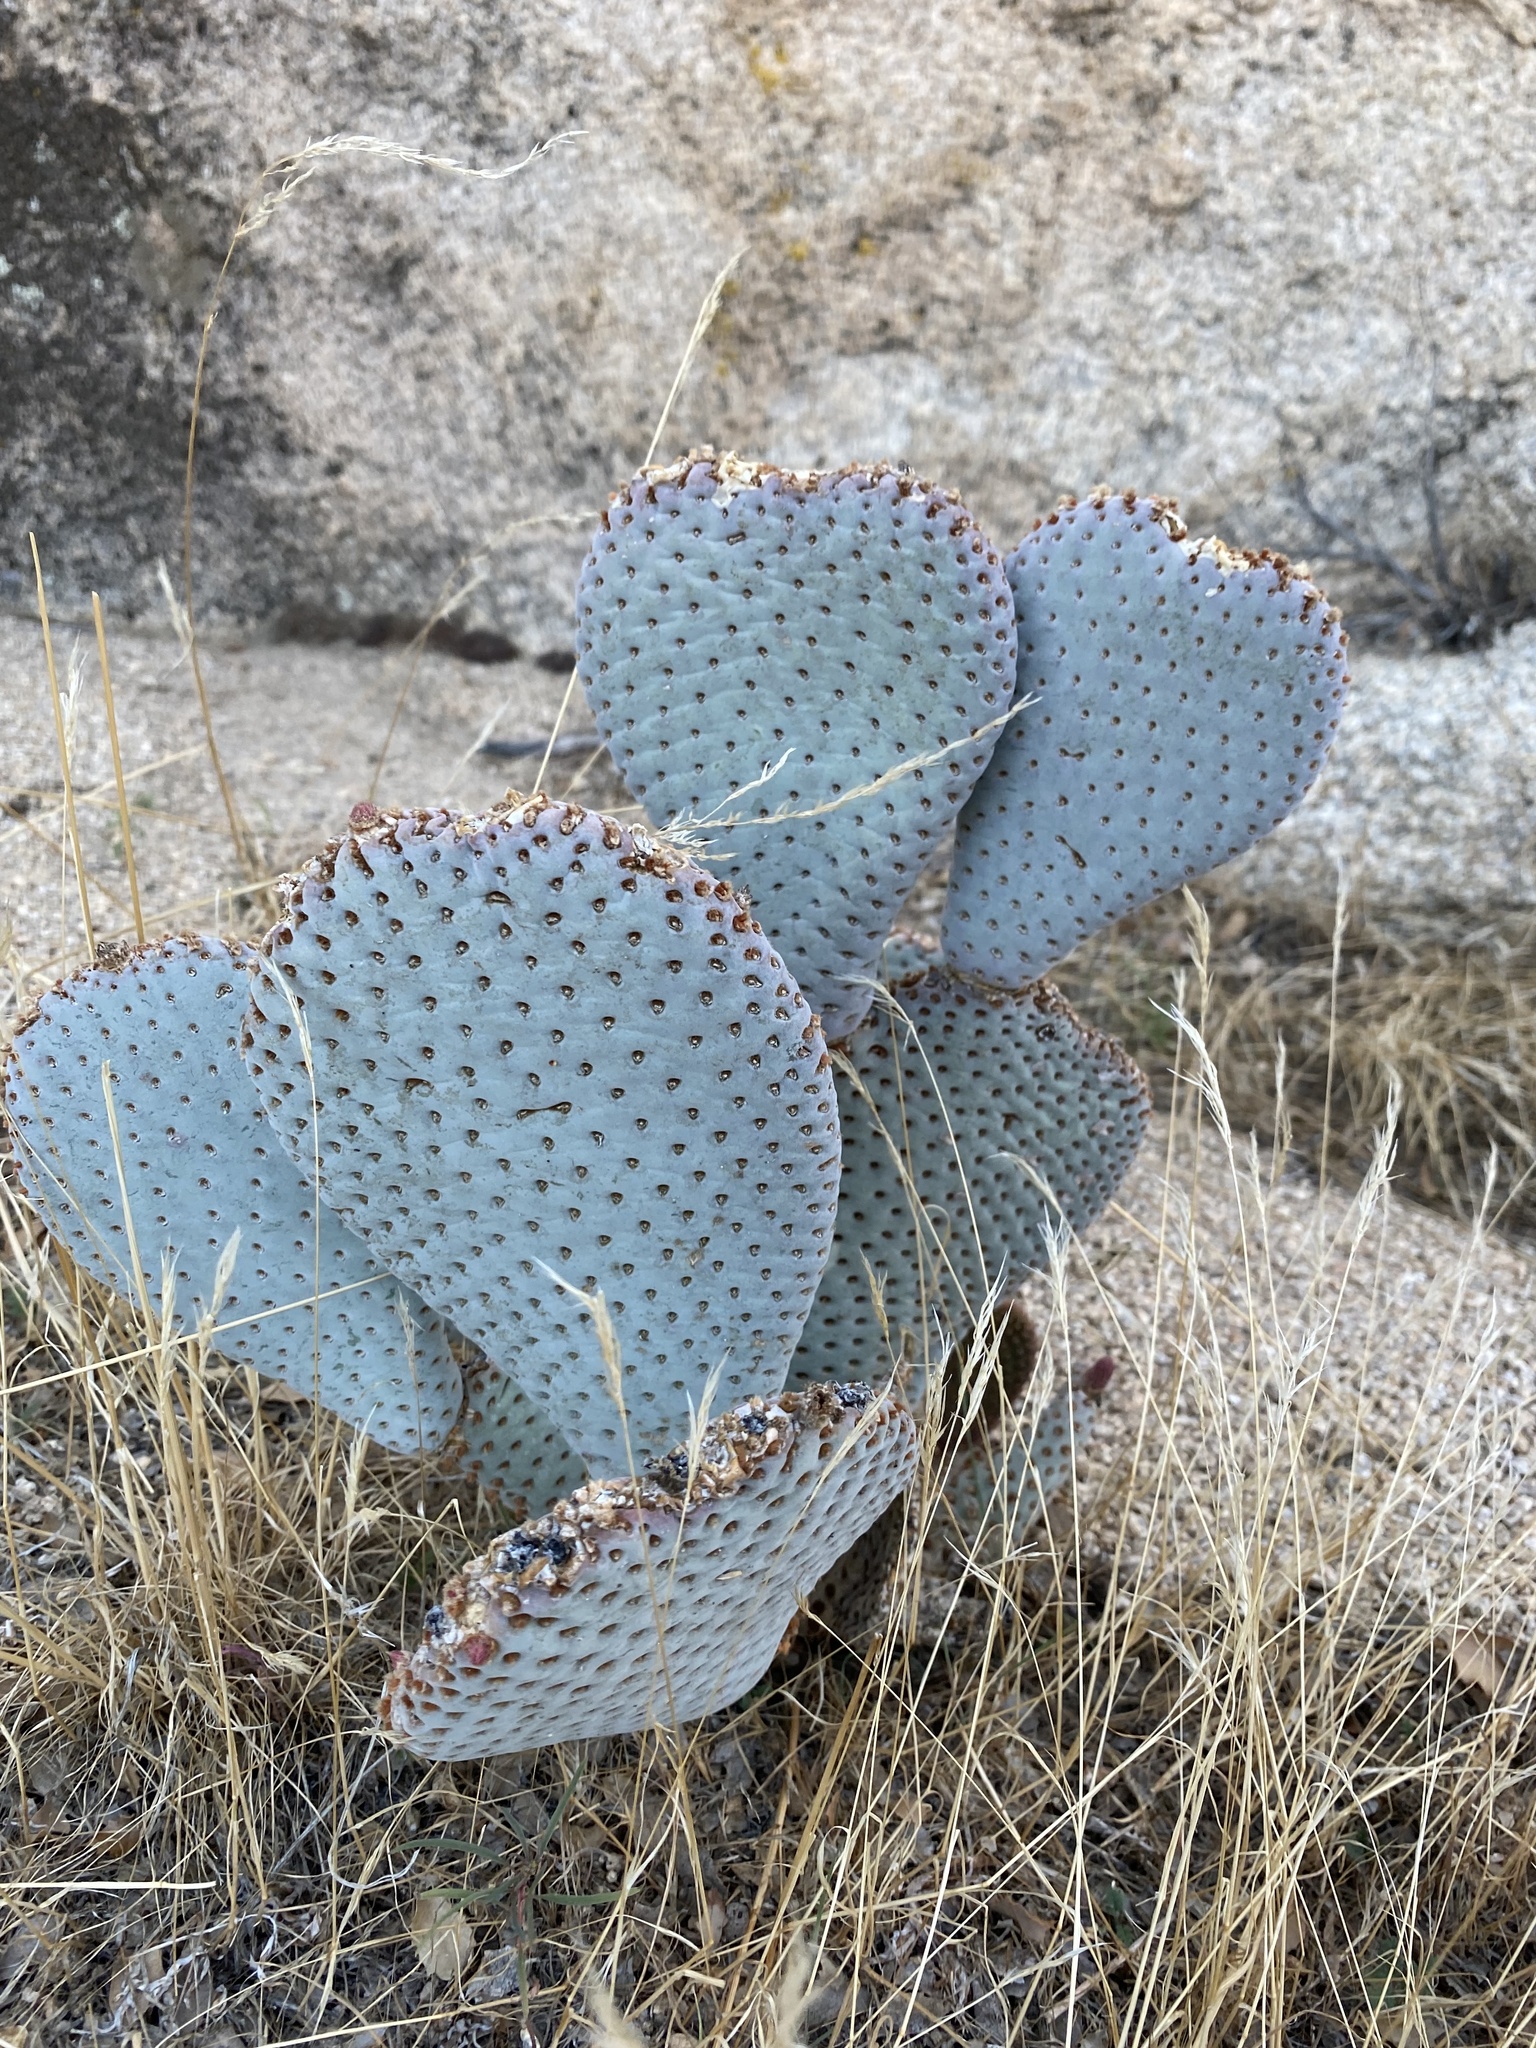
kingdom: Plantae
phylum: Tracheophyta
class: Magnoliopsida
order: Caryophyllales
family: Cactaceae
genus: Opuntia
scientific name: Opuntia basilaris
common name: Beavertail prickly-pear
